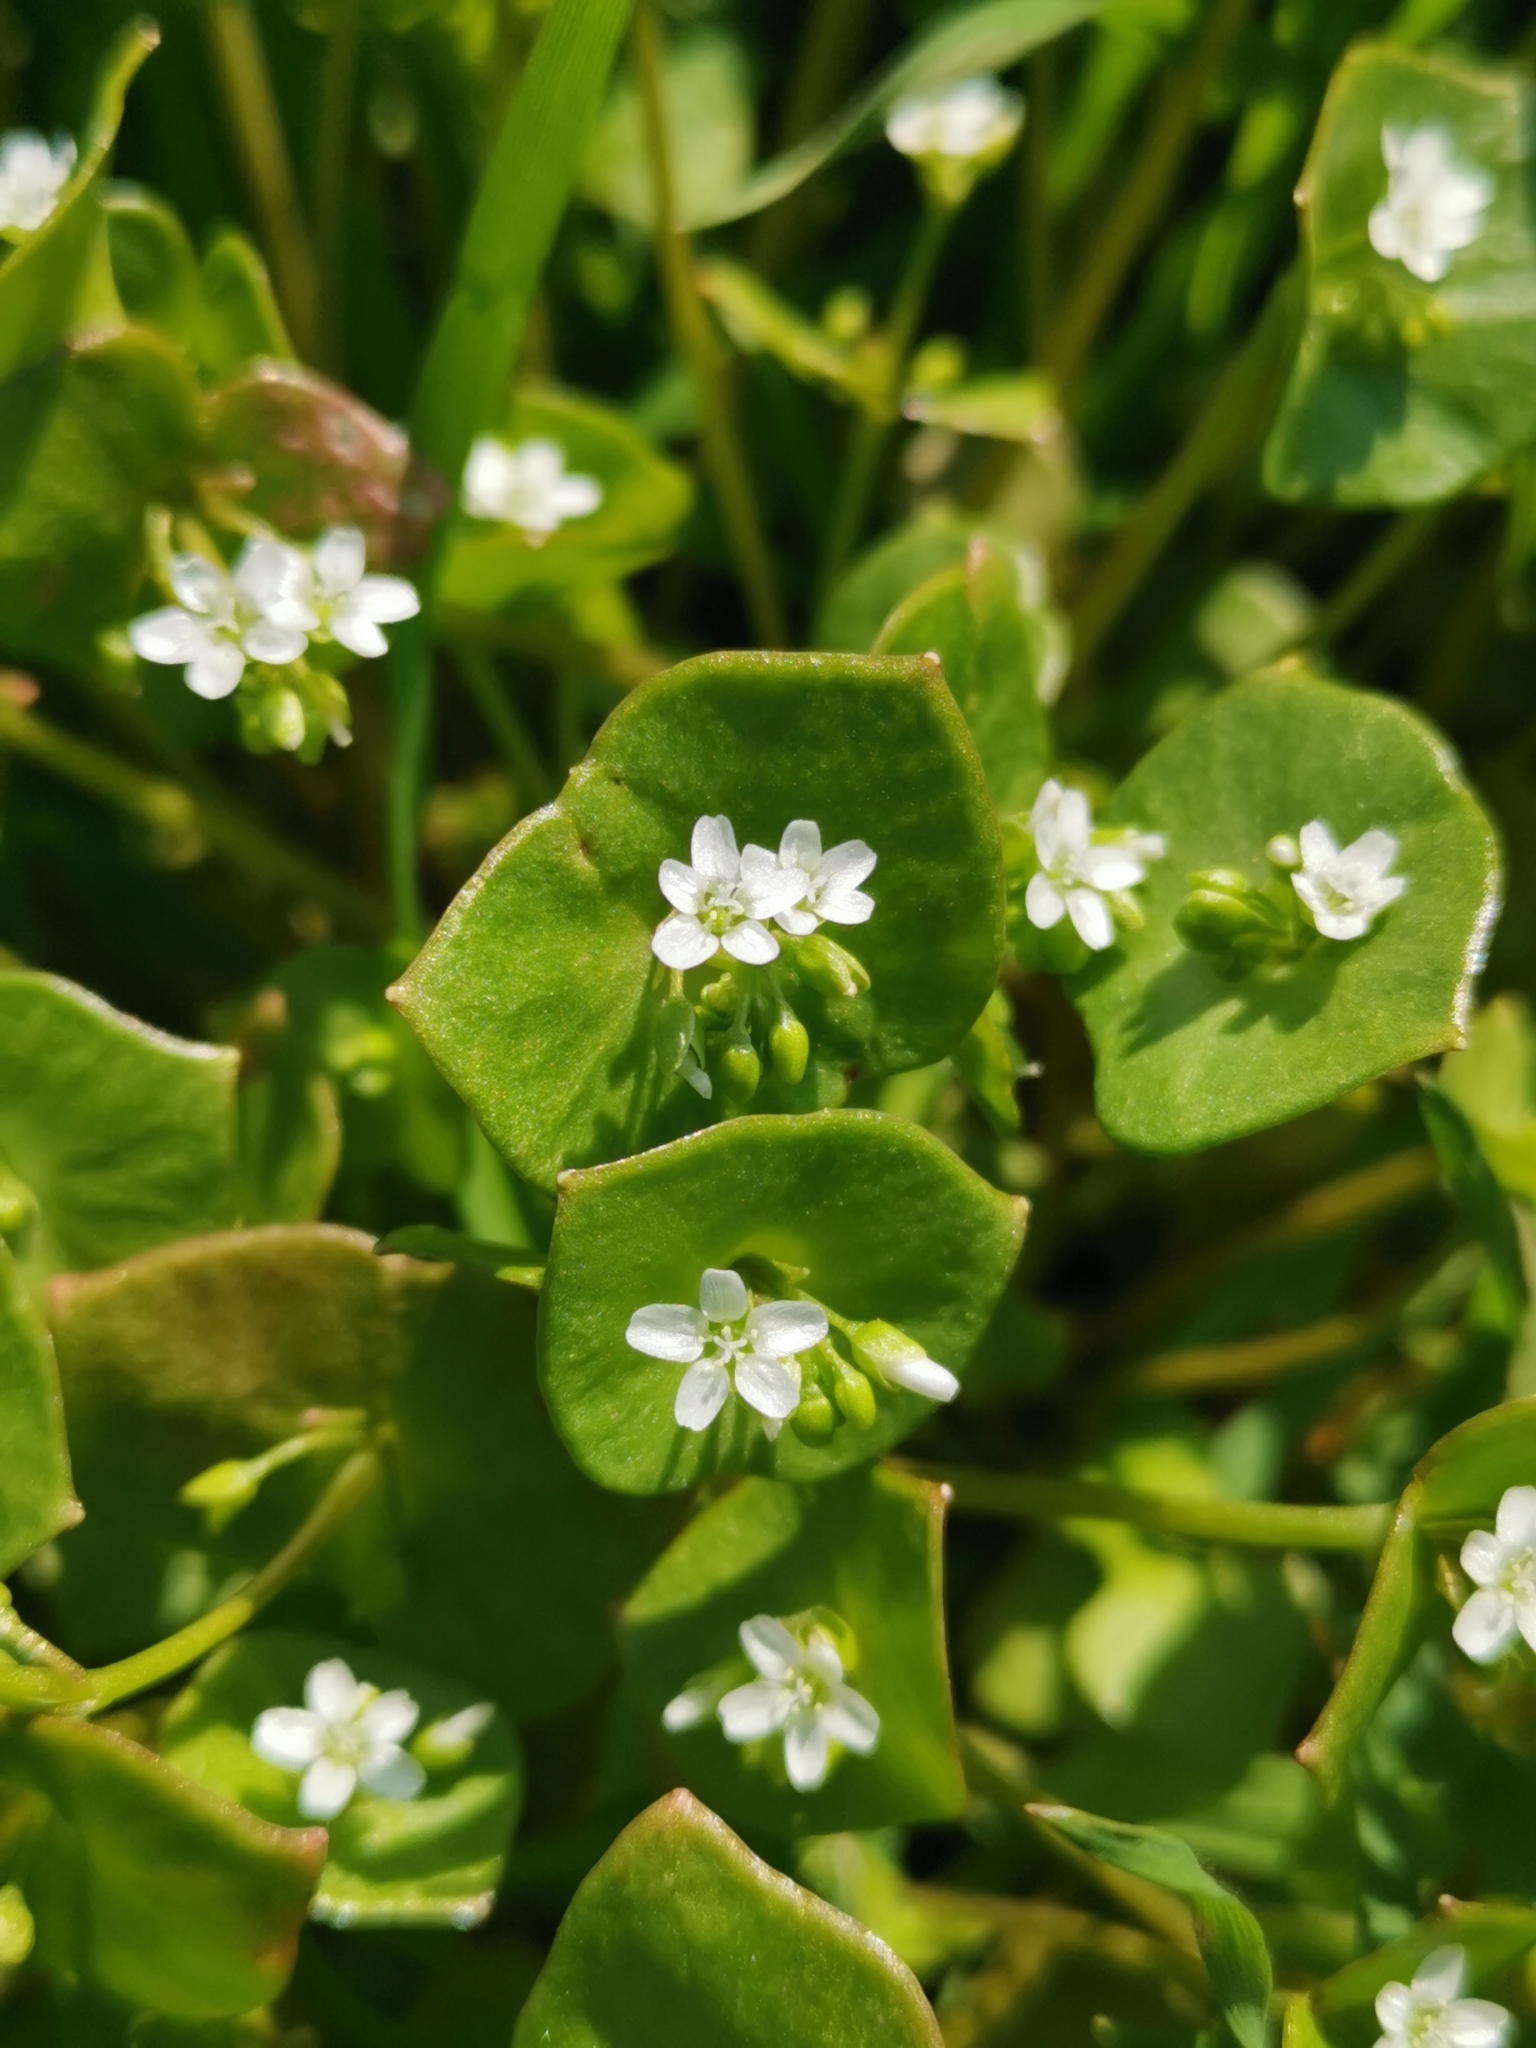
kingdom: Plantae
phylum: Tracheophyta
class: Magnoliopsida
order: Caryophyllales
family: Montiaceae
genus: Claytonia
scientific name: Claytonia perfoliata
